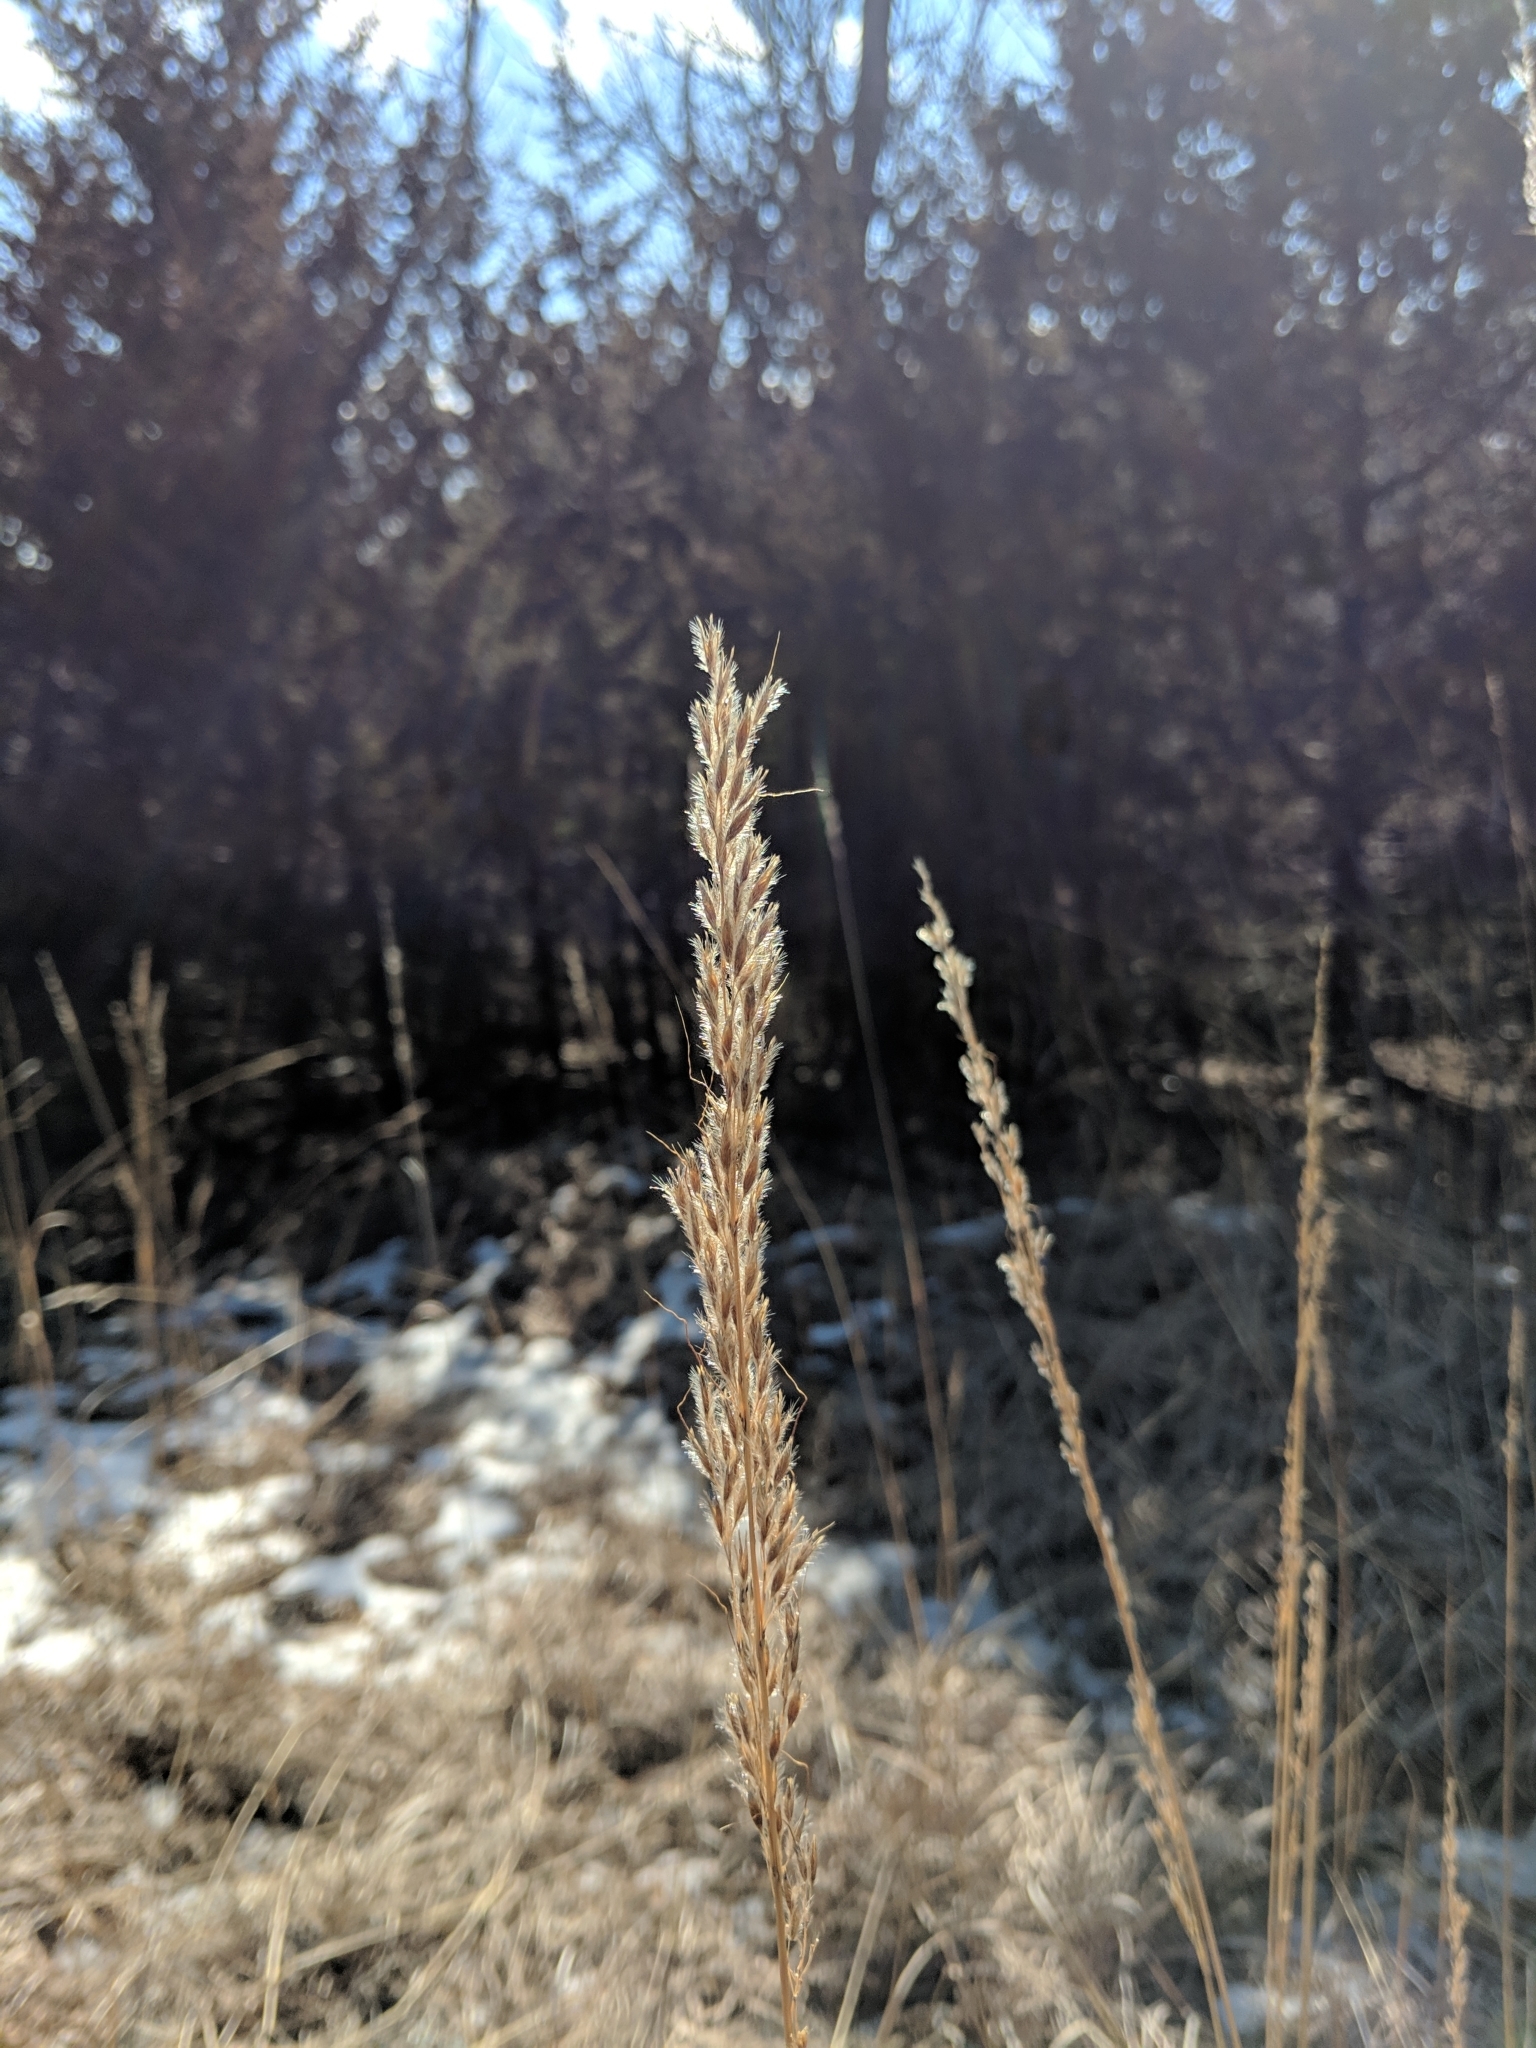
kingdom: Plantae
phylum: Tracheophyta
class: Liliopsida
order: Poales
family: Poaceae
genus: Sorghastrum
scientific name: Sorghastrum nutans
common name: Indian grass
